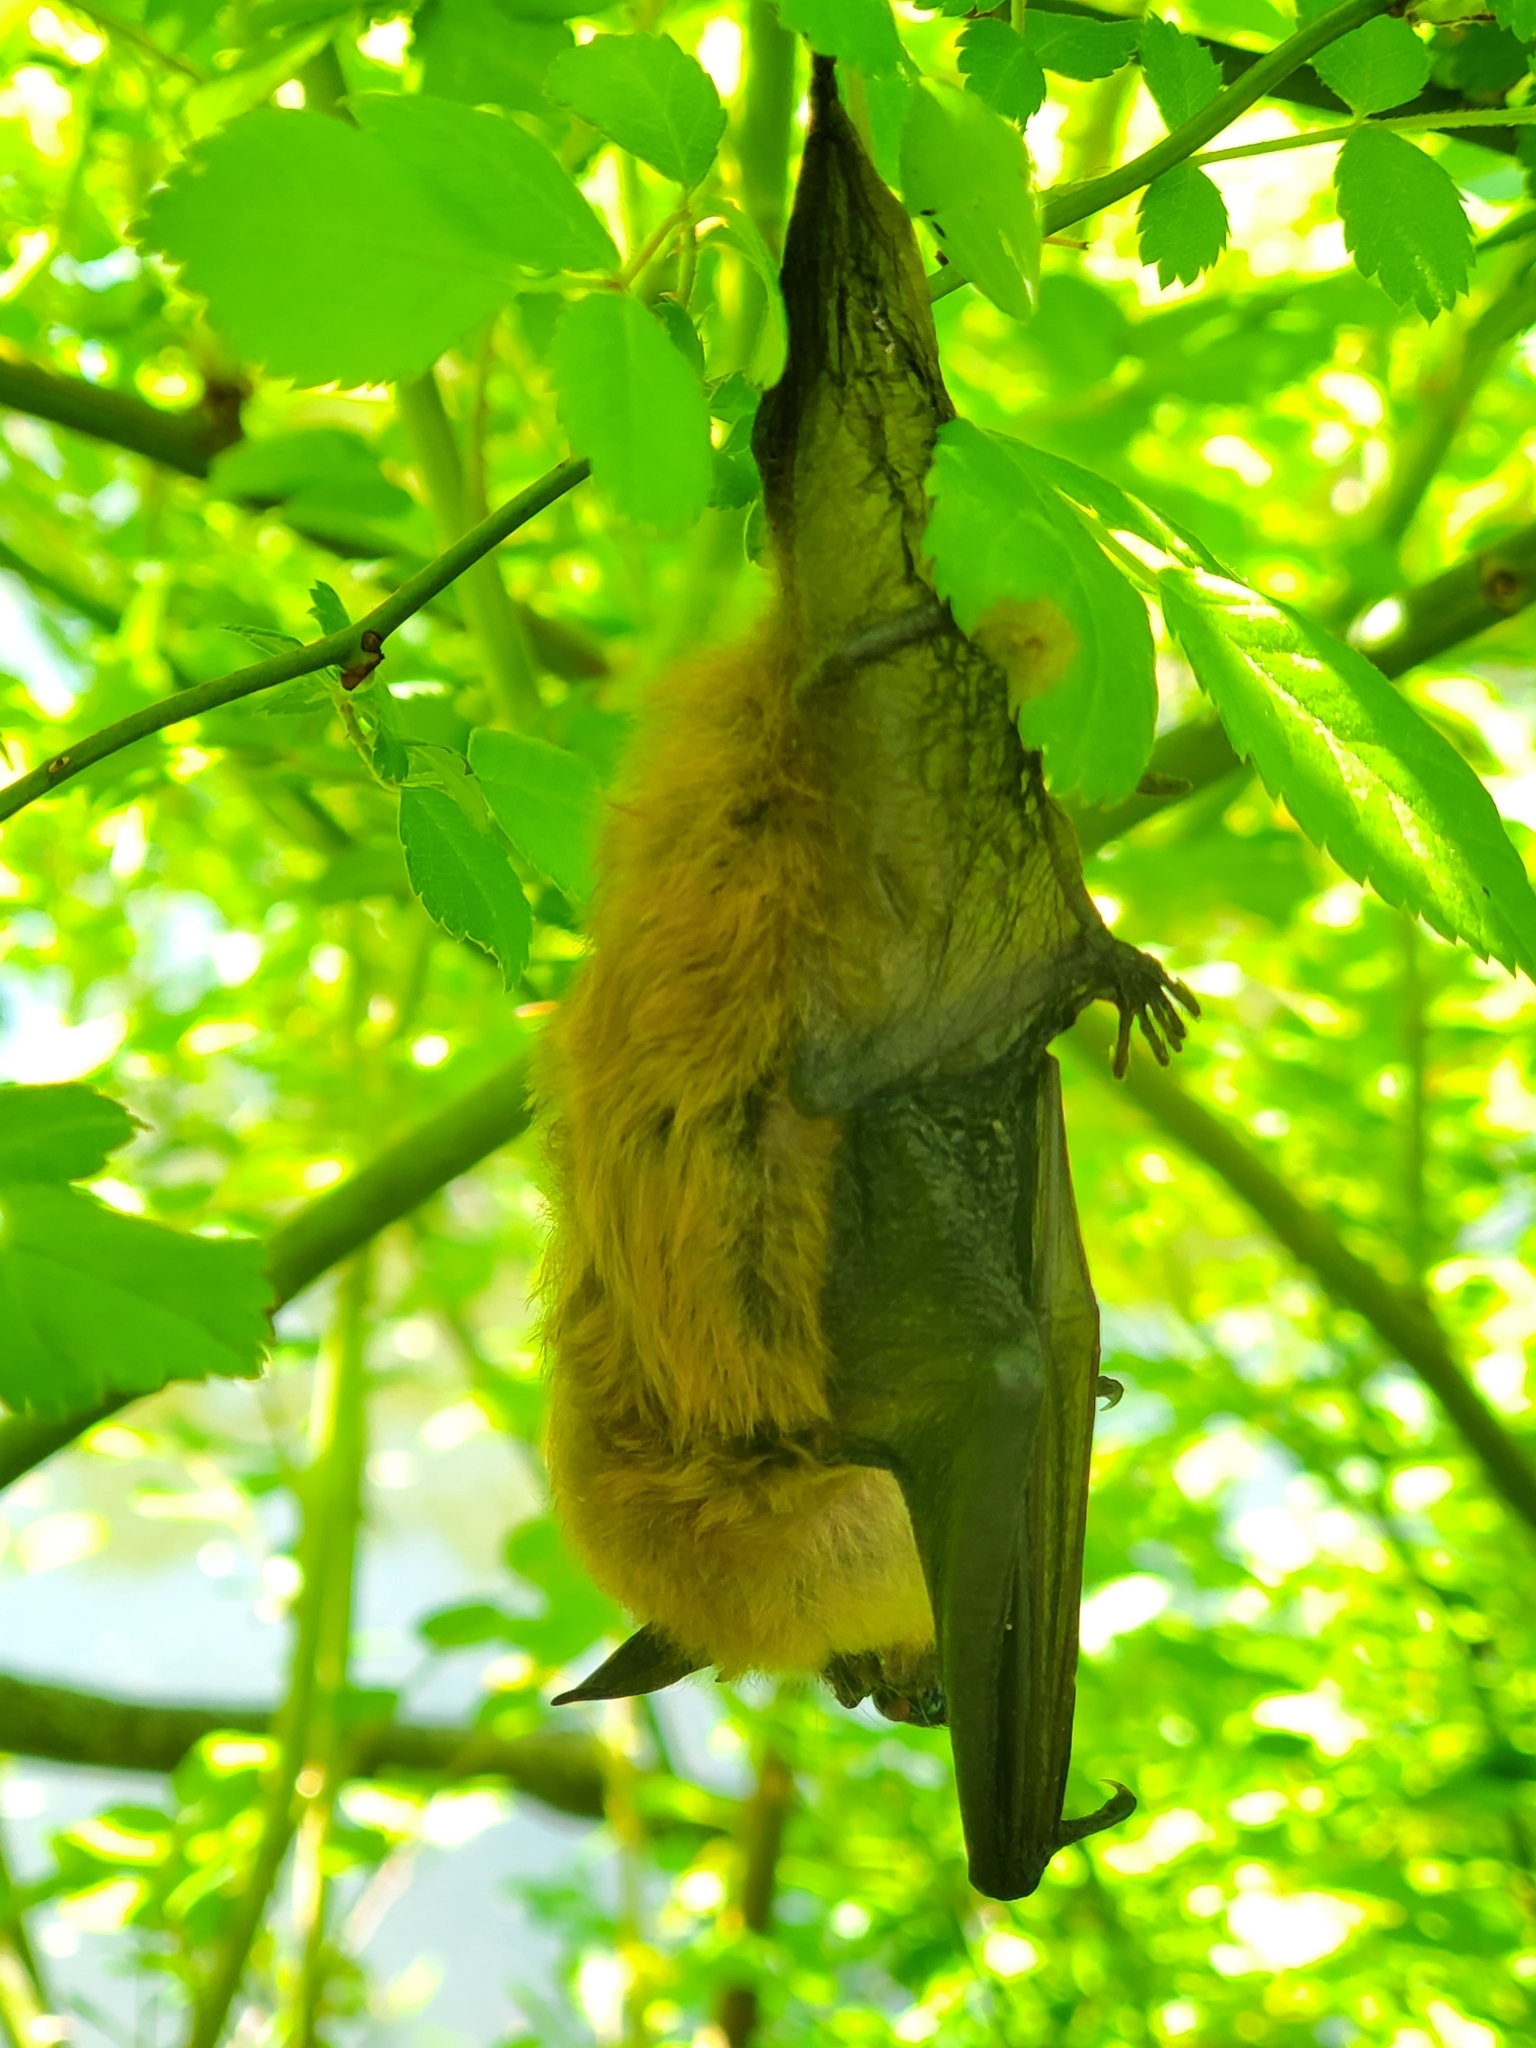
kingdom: Animalia
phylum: Chordata
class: Mammalia
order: Chiroptera
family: Vespertilionidae
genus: Eptesicus
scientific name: Eptesicus fuscus
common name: Big brown bat
